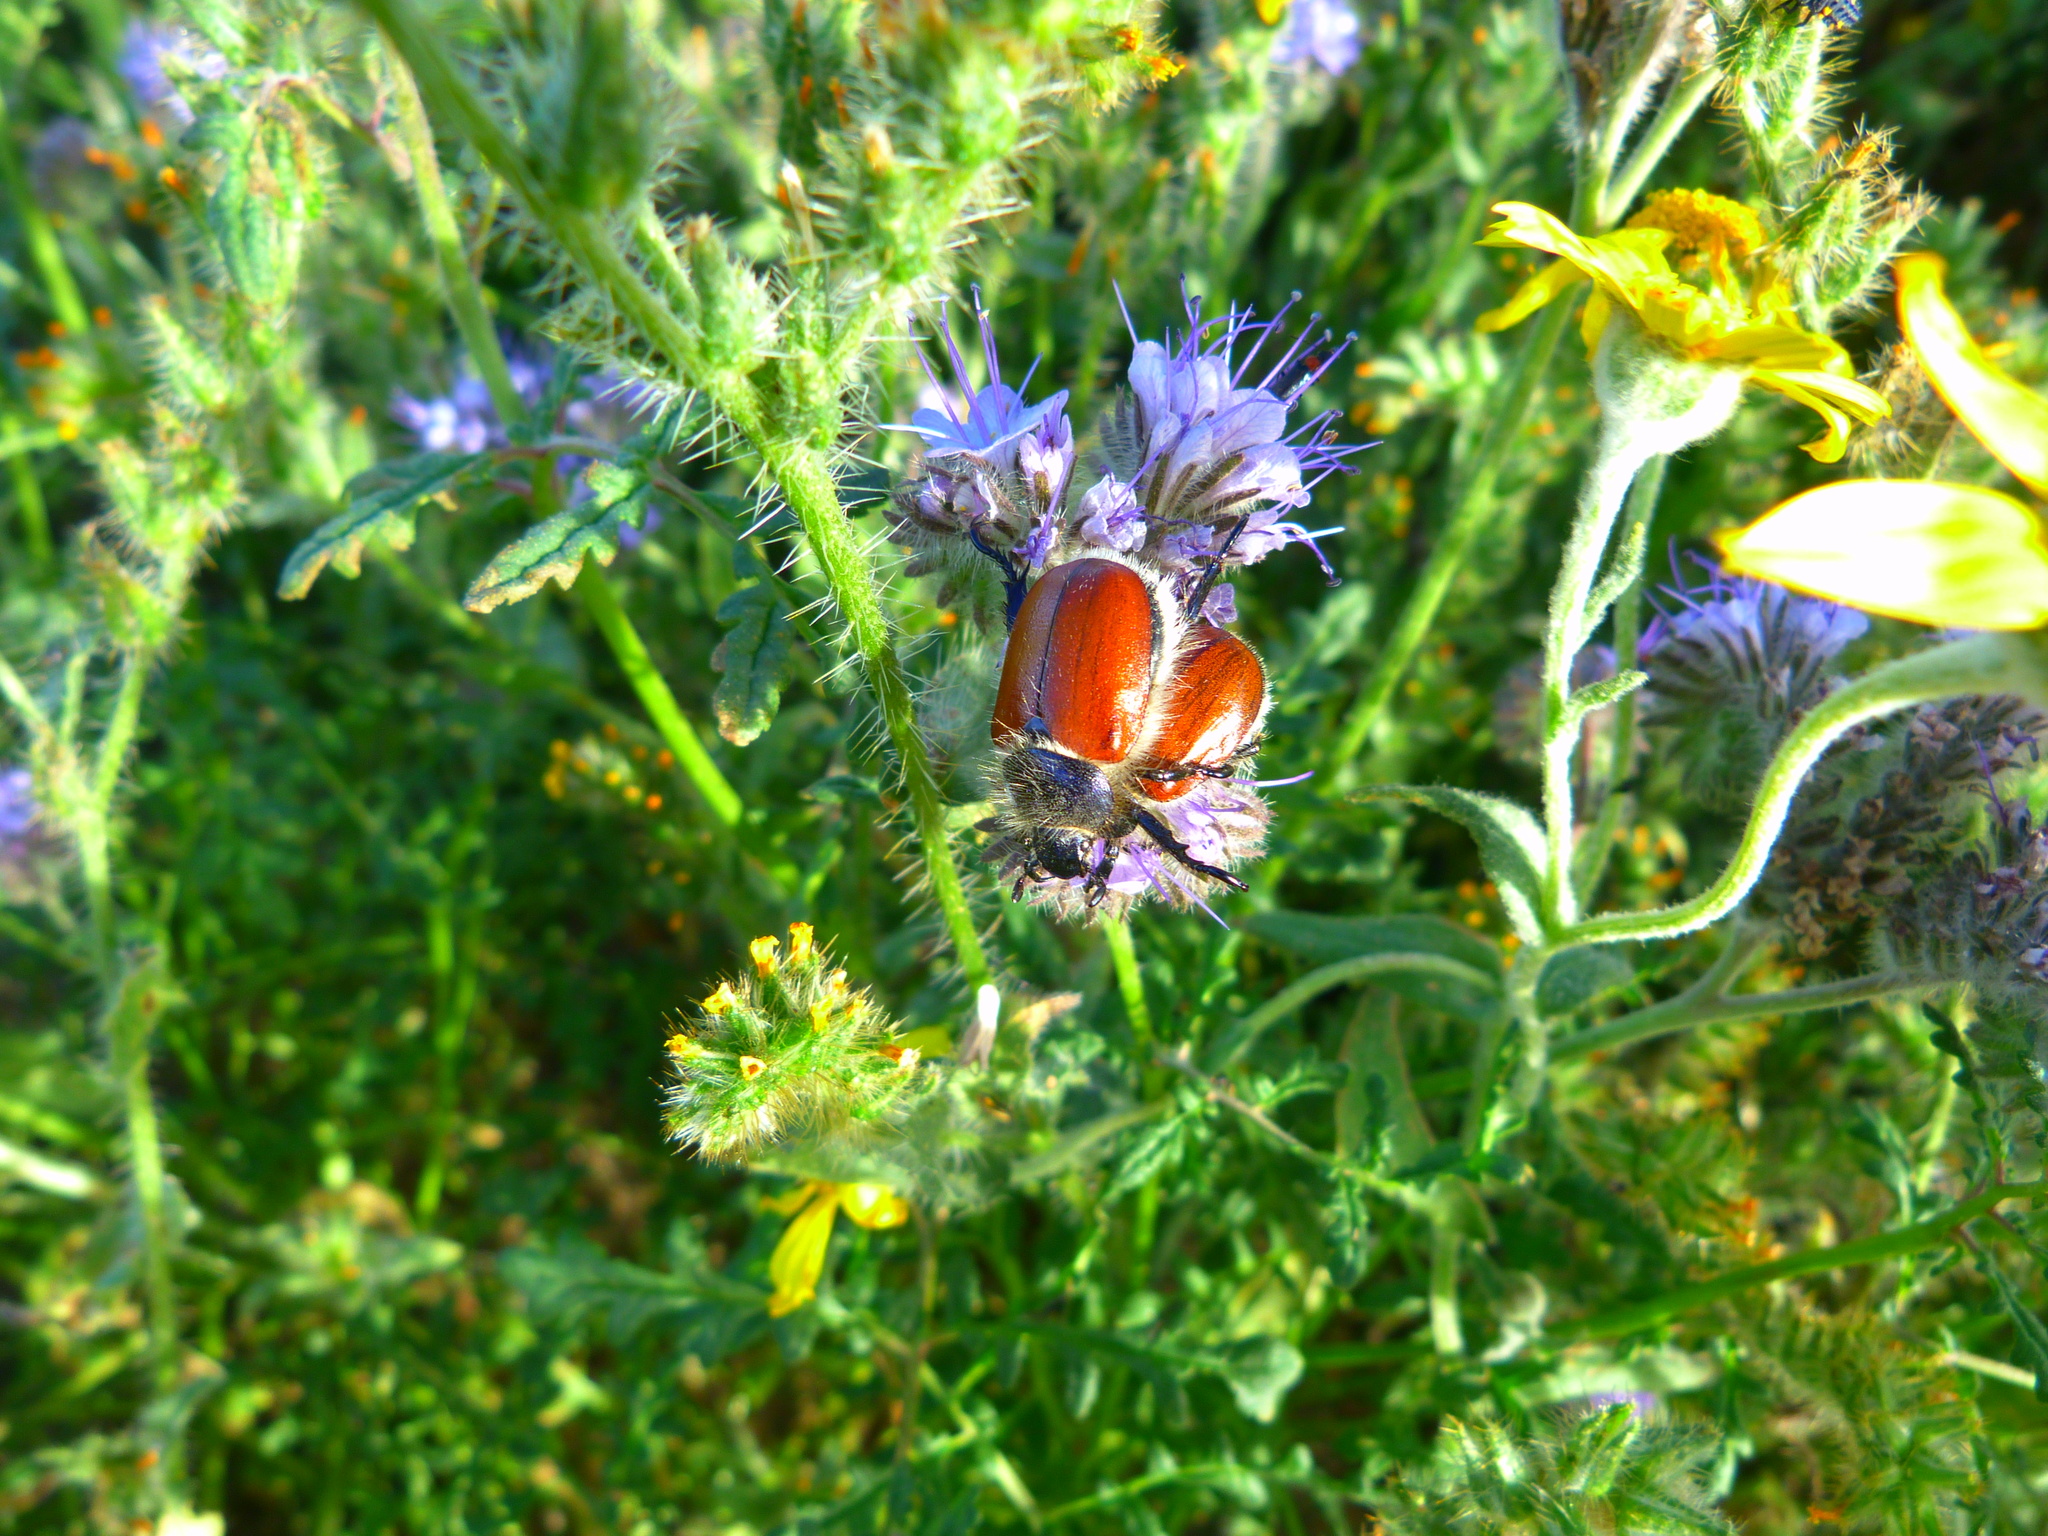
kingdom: Animalia
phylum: Arthropoda
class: Insecta
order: Coleoptera
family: Scarabaeidae
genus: Paracotalpa
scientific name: Paracotalpa ursina
